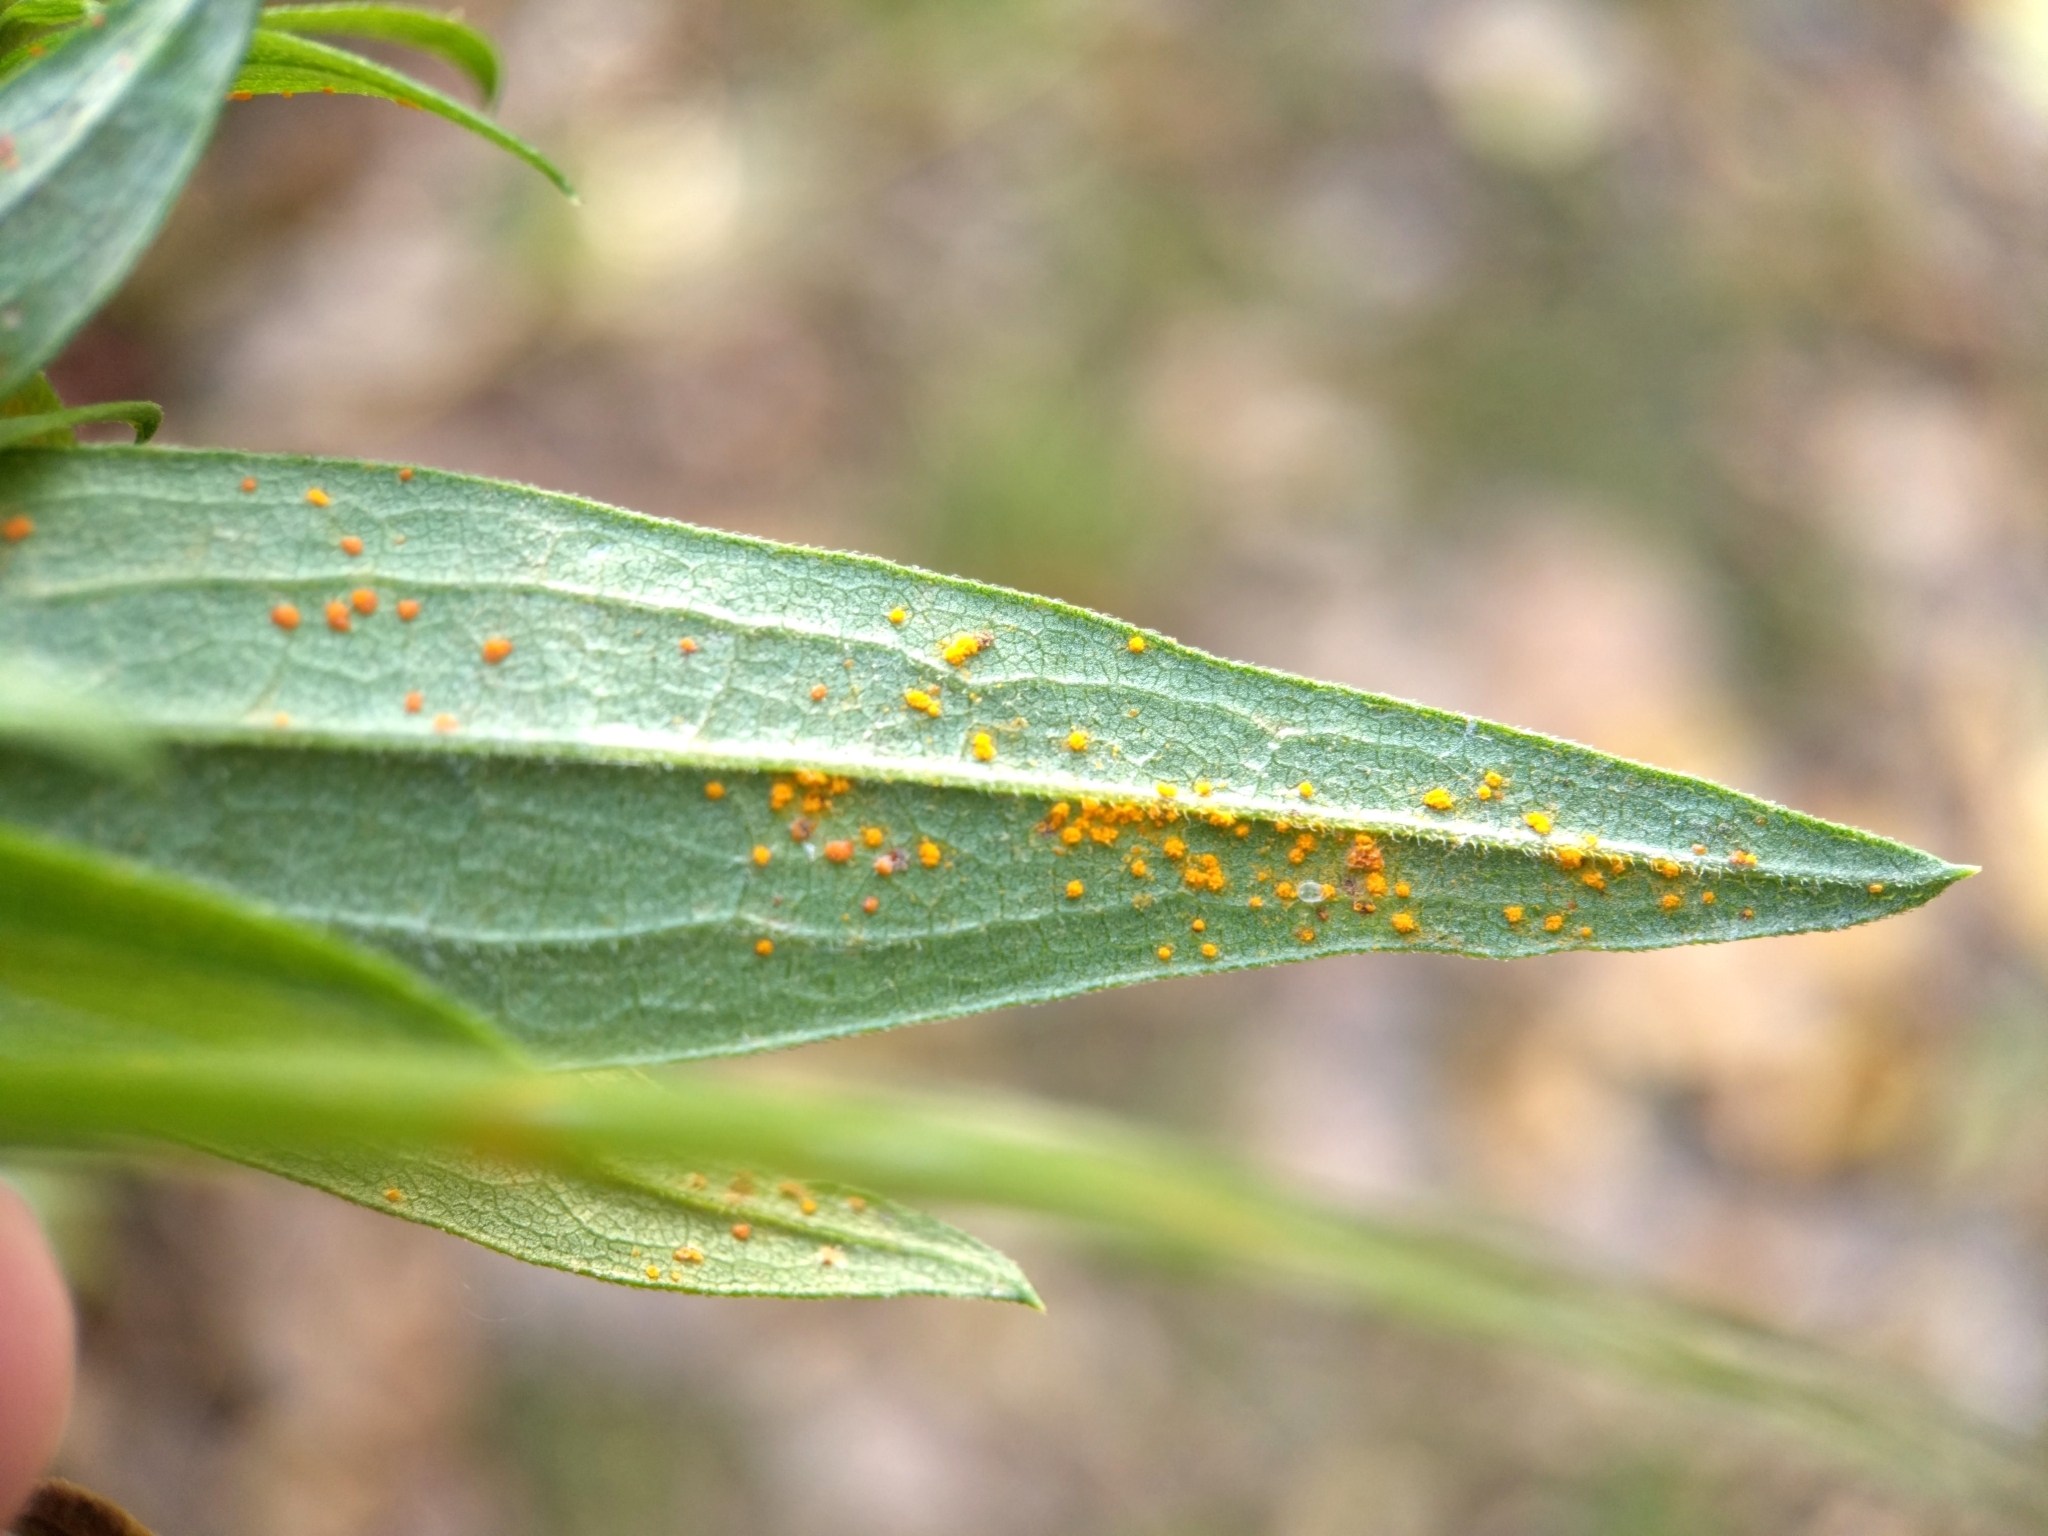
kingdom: Fungi
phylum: Basidiomycota
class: Pucciniomycetes
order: Pucciniales
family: Coleosporiaceae
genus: Coleosporium
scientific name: Coleosporium asterum
